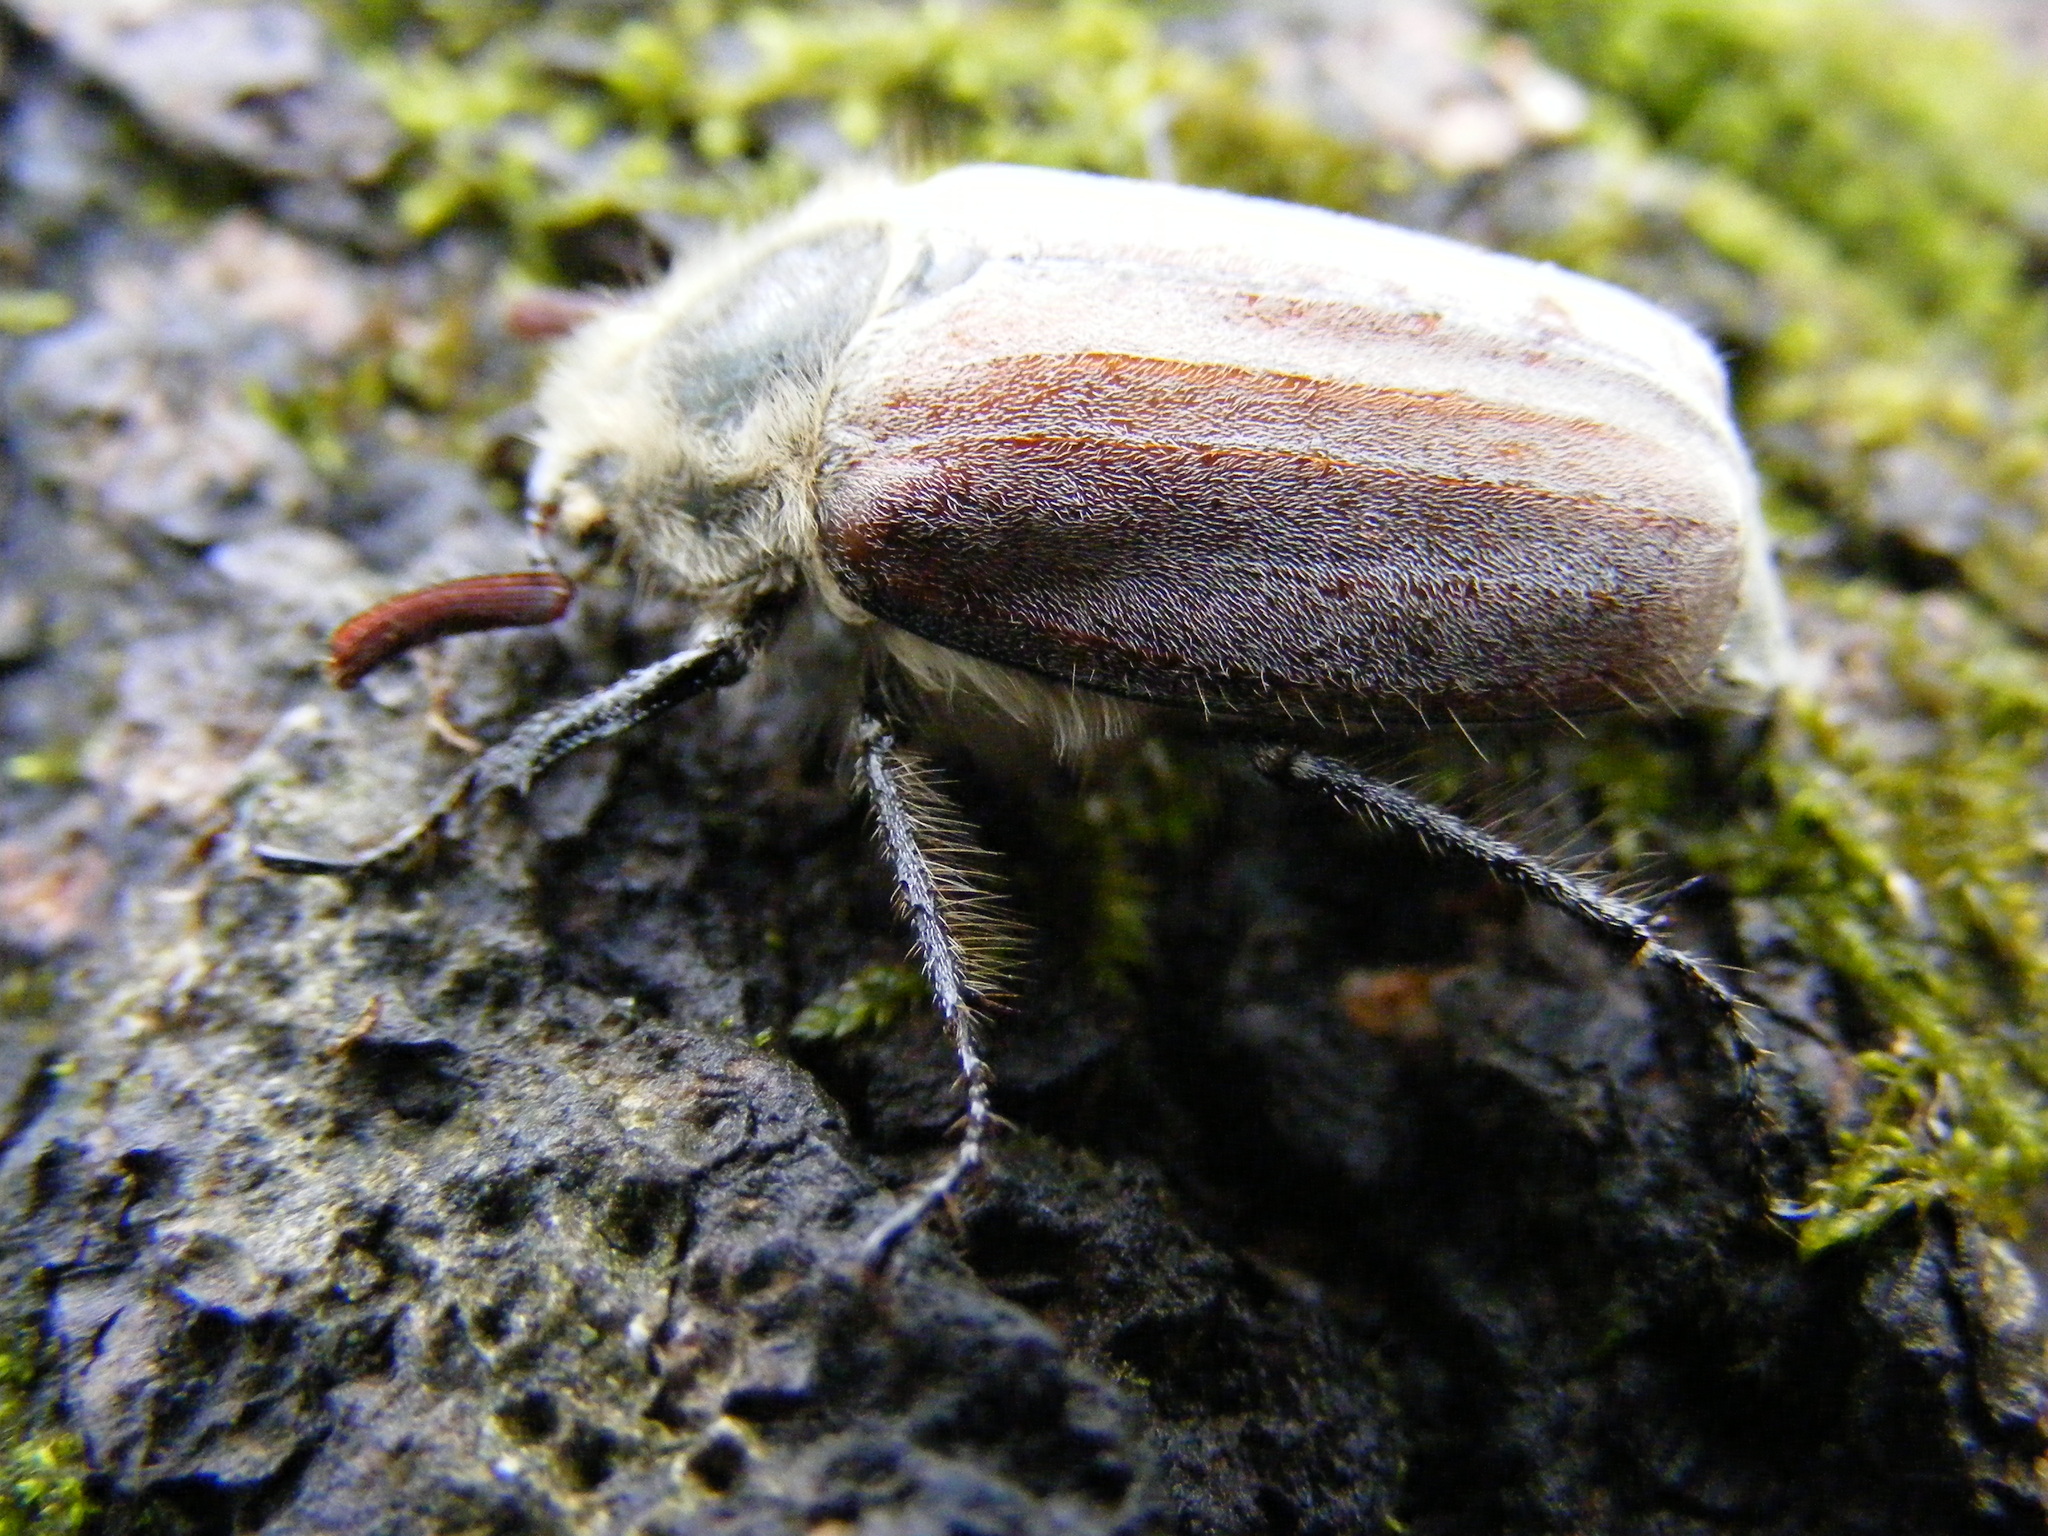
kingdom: Animalia
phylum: Arthropoda
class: Insecta
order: Coleoptera
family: Scarabaeidae
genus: Melolontha
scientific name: Melolontha hippocastani
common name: Chestnut cockchafer
